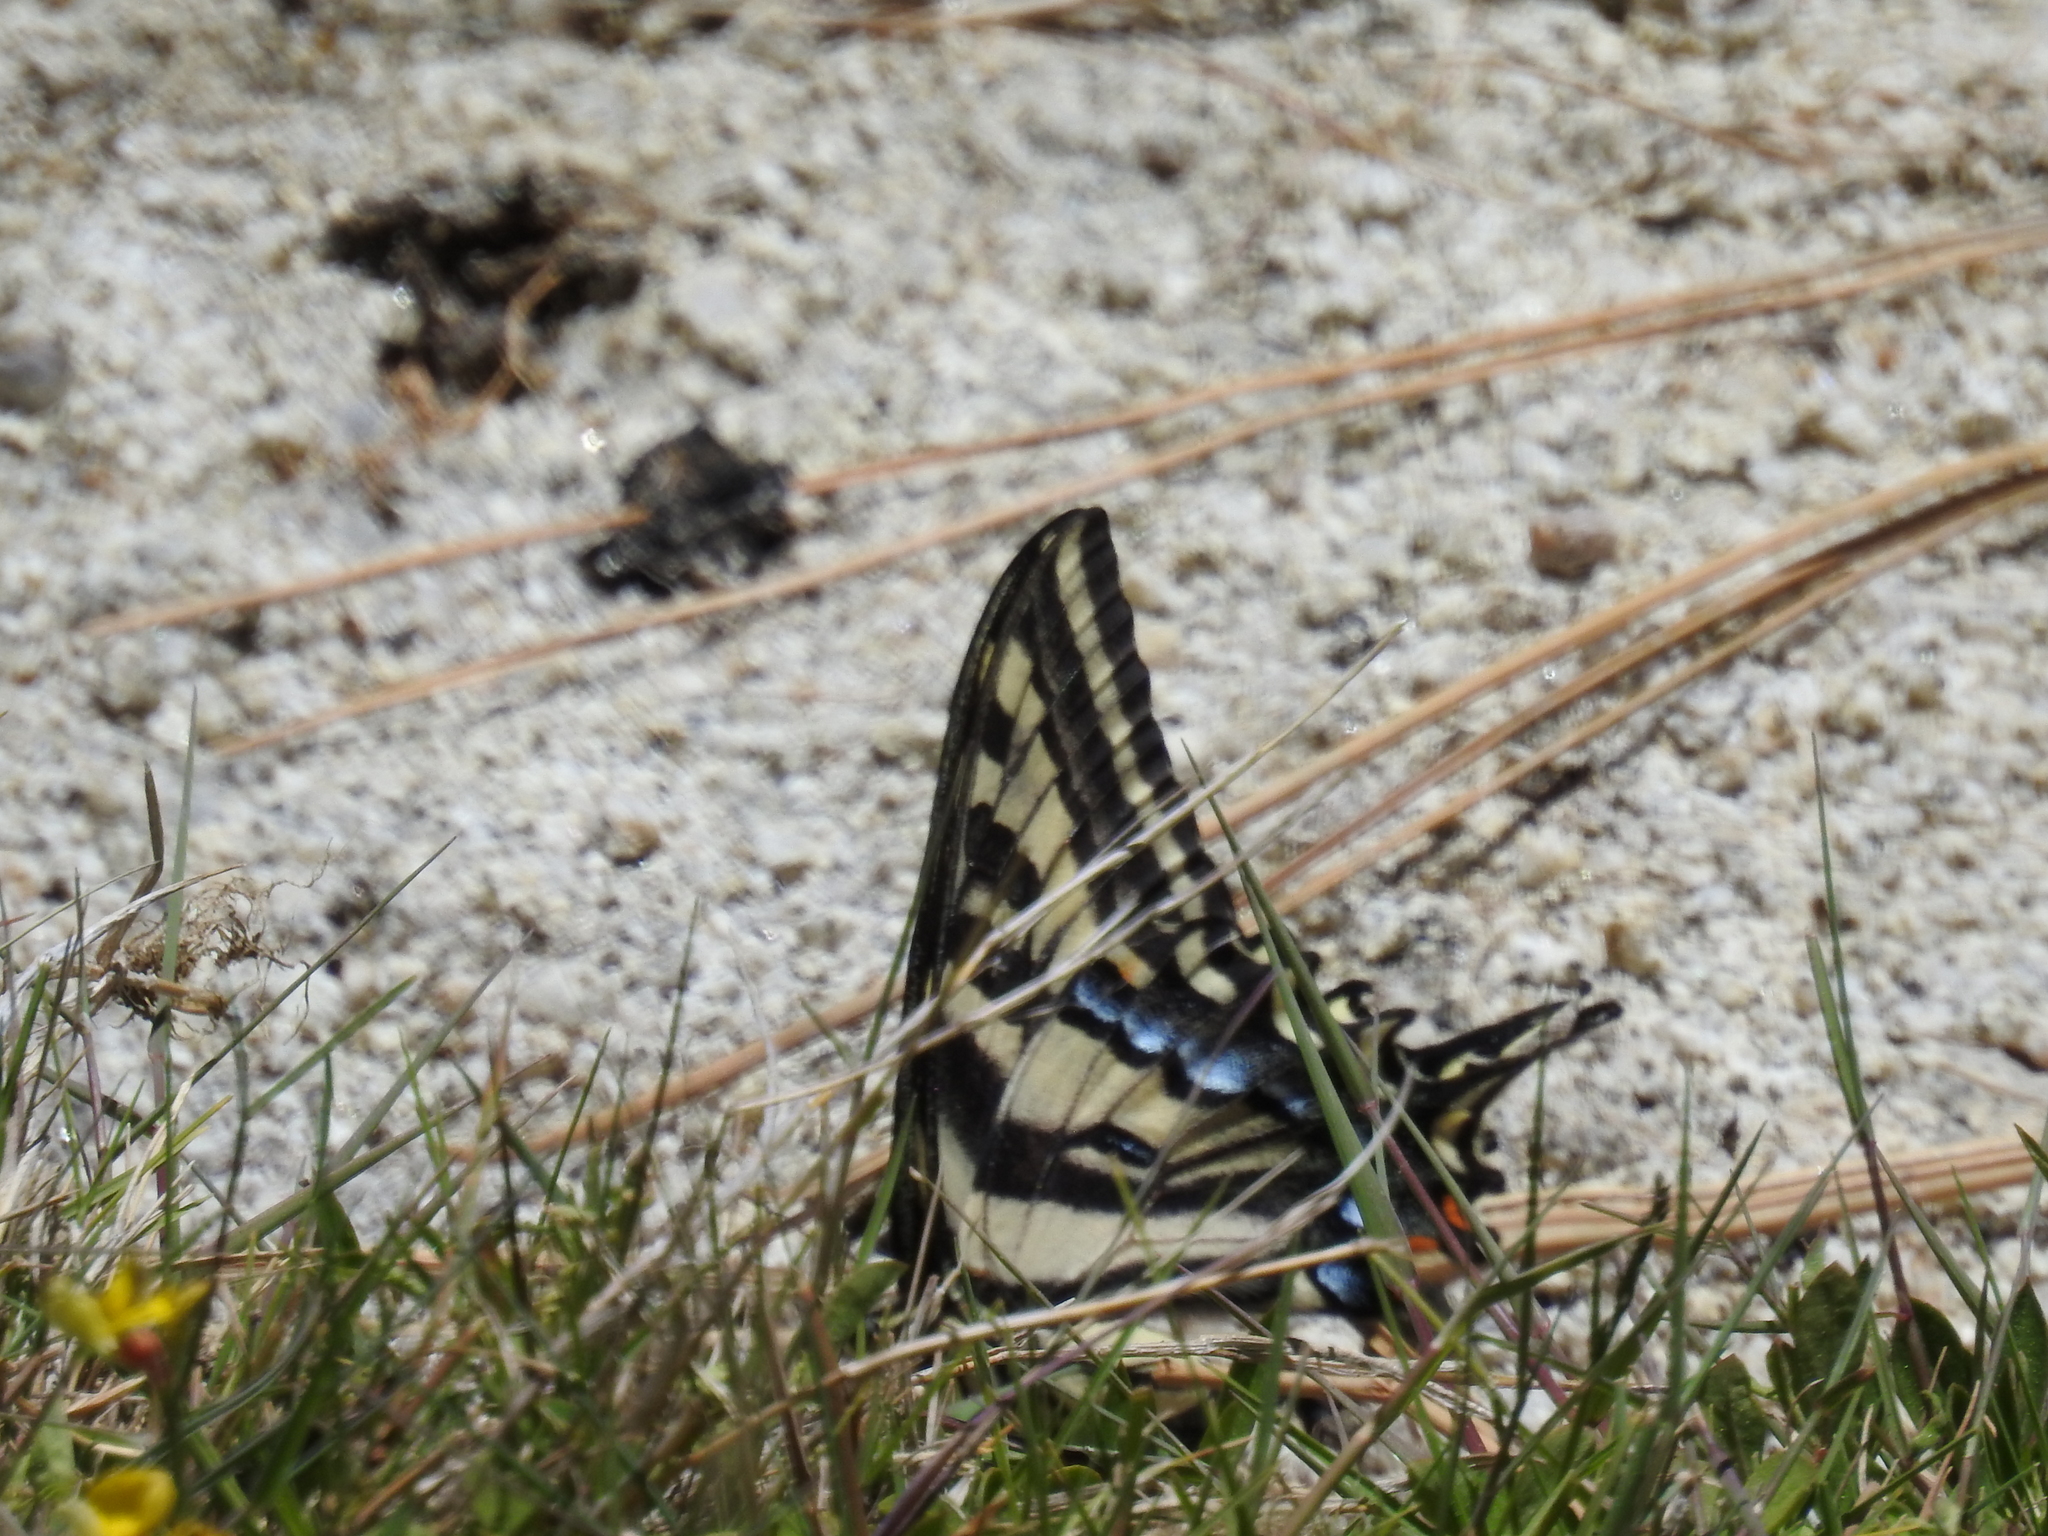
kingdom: Animalia
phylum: Arthropoda
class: Insecta
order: Lepidoptera
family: Papilionidae
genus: Papilio
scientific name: Papilio eurymedon
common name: Pale tiger swallowtail
